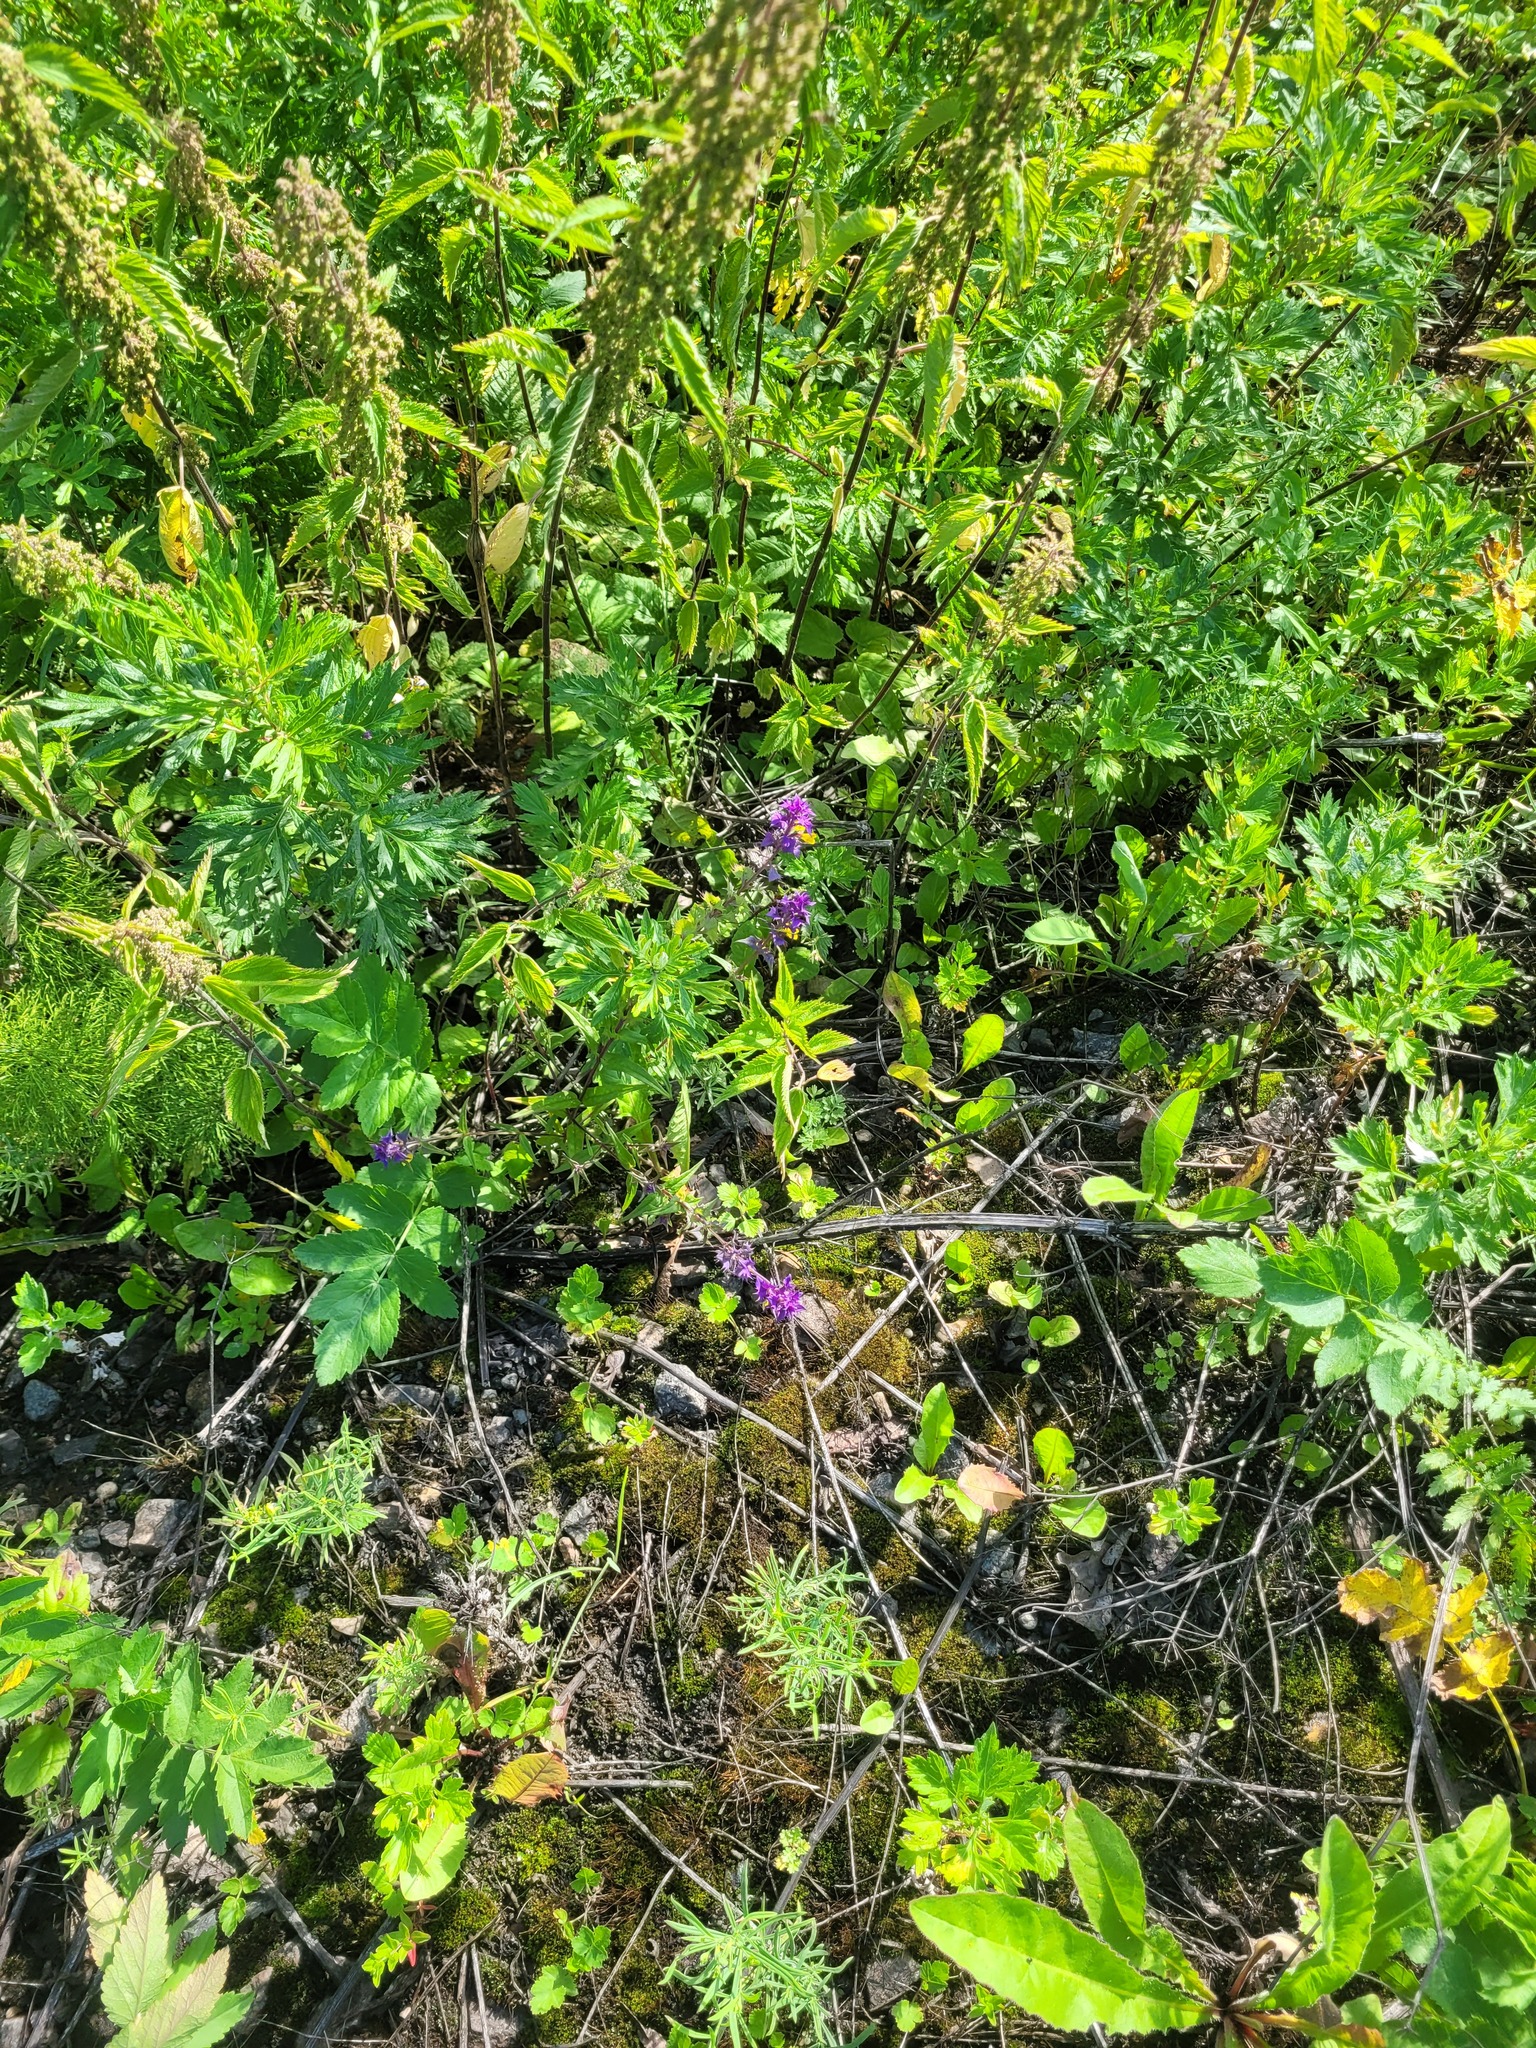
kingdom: Plantae
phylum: Tracheophyta
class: Magnoliopsida
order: Lamiales
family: Orobanchaceae
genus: Melampyrum
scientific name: Melampyrum nemorosum
